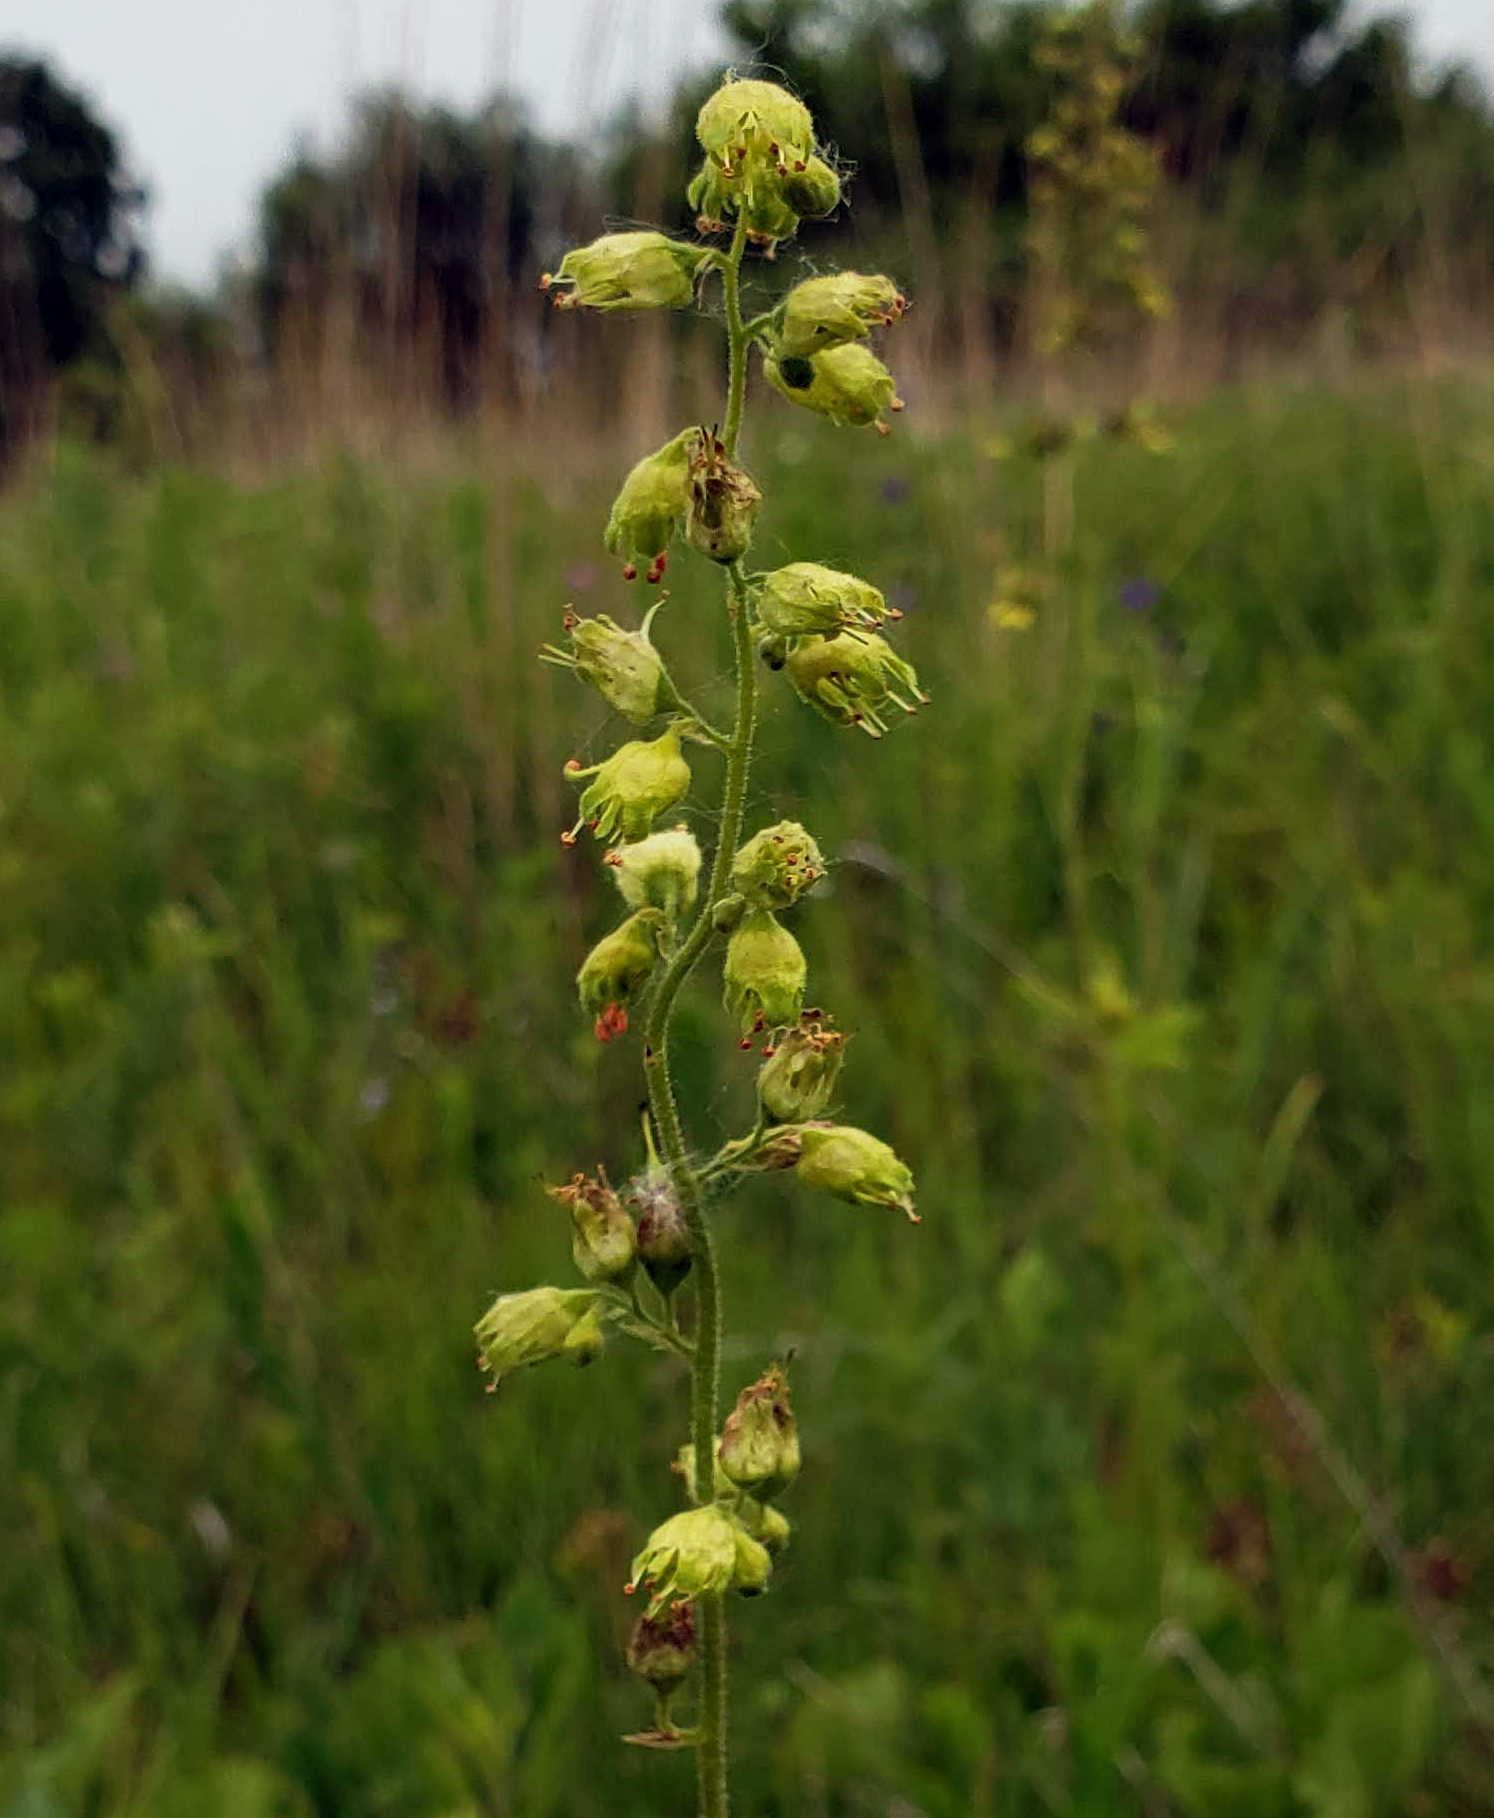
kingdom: Plantae
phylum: Tracheophyta
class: Magnoliopsida
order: Saxifragales
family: Saxifragaceae
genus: Heuchera
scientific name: Heuchera richardsonii
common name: Richardson's alumroot
